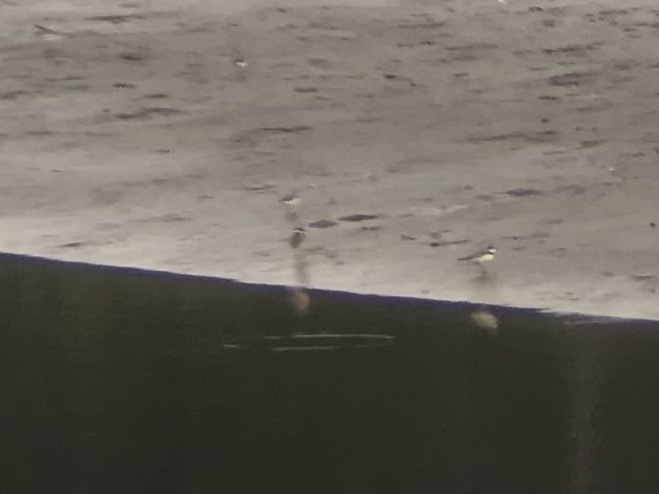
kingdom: Animalia
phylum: Chordata
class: Aves
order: Charadriiformes
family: Charadriidae
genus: Charadrius
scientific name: Charadrius semipalmatus
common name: Semipalmated plover
